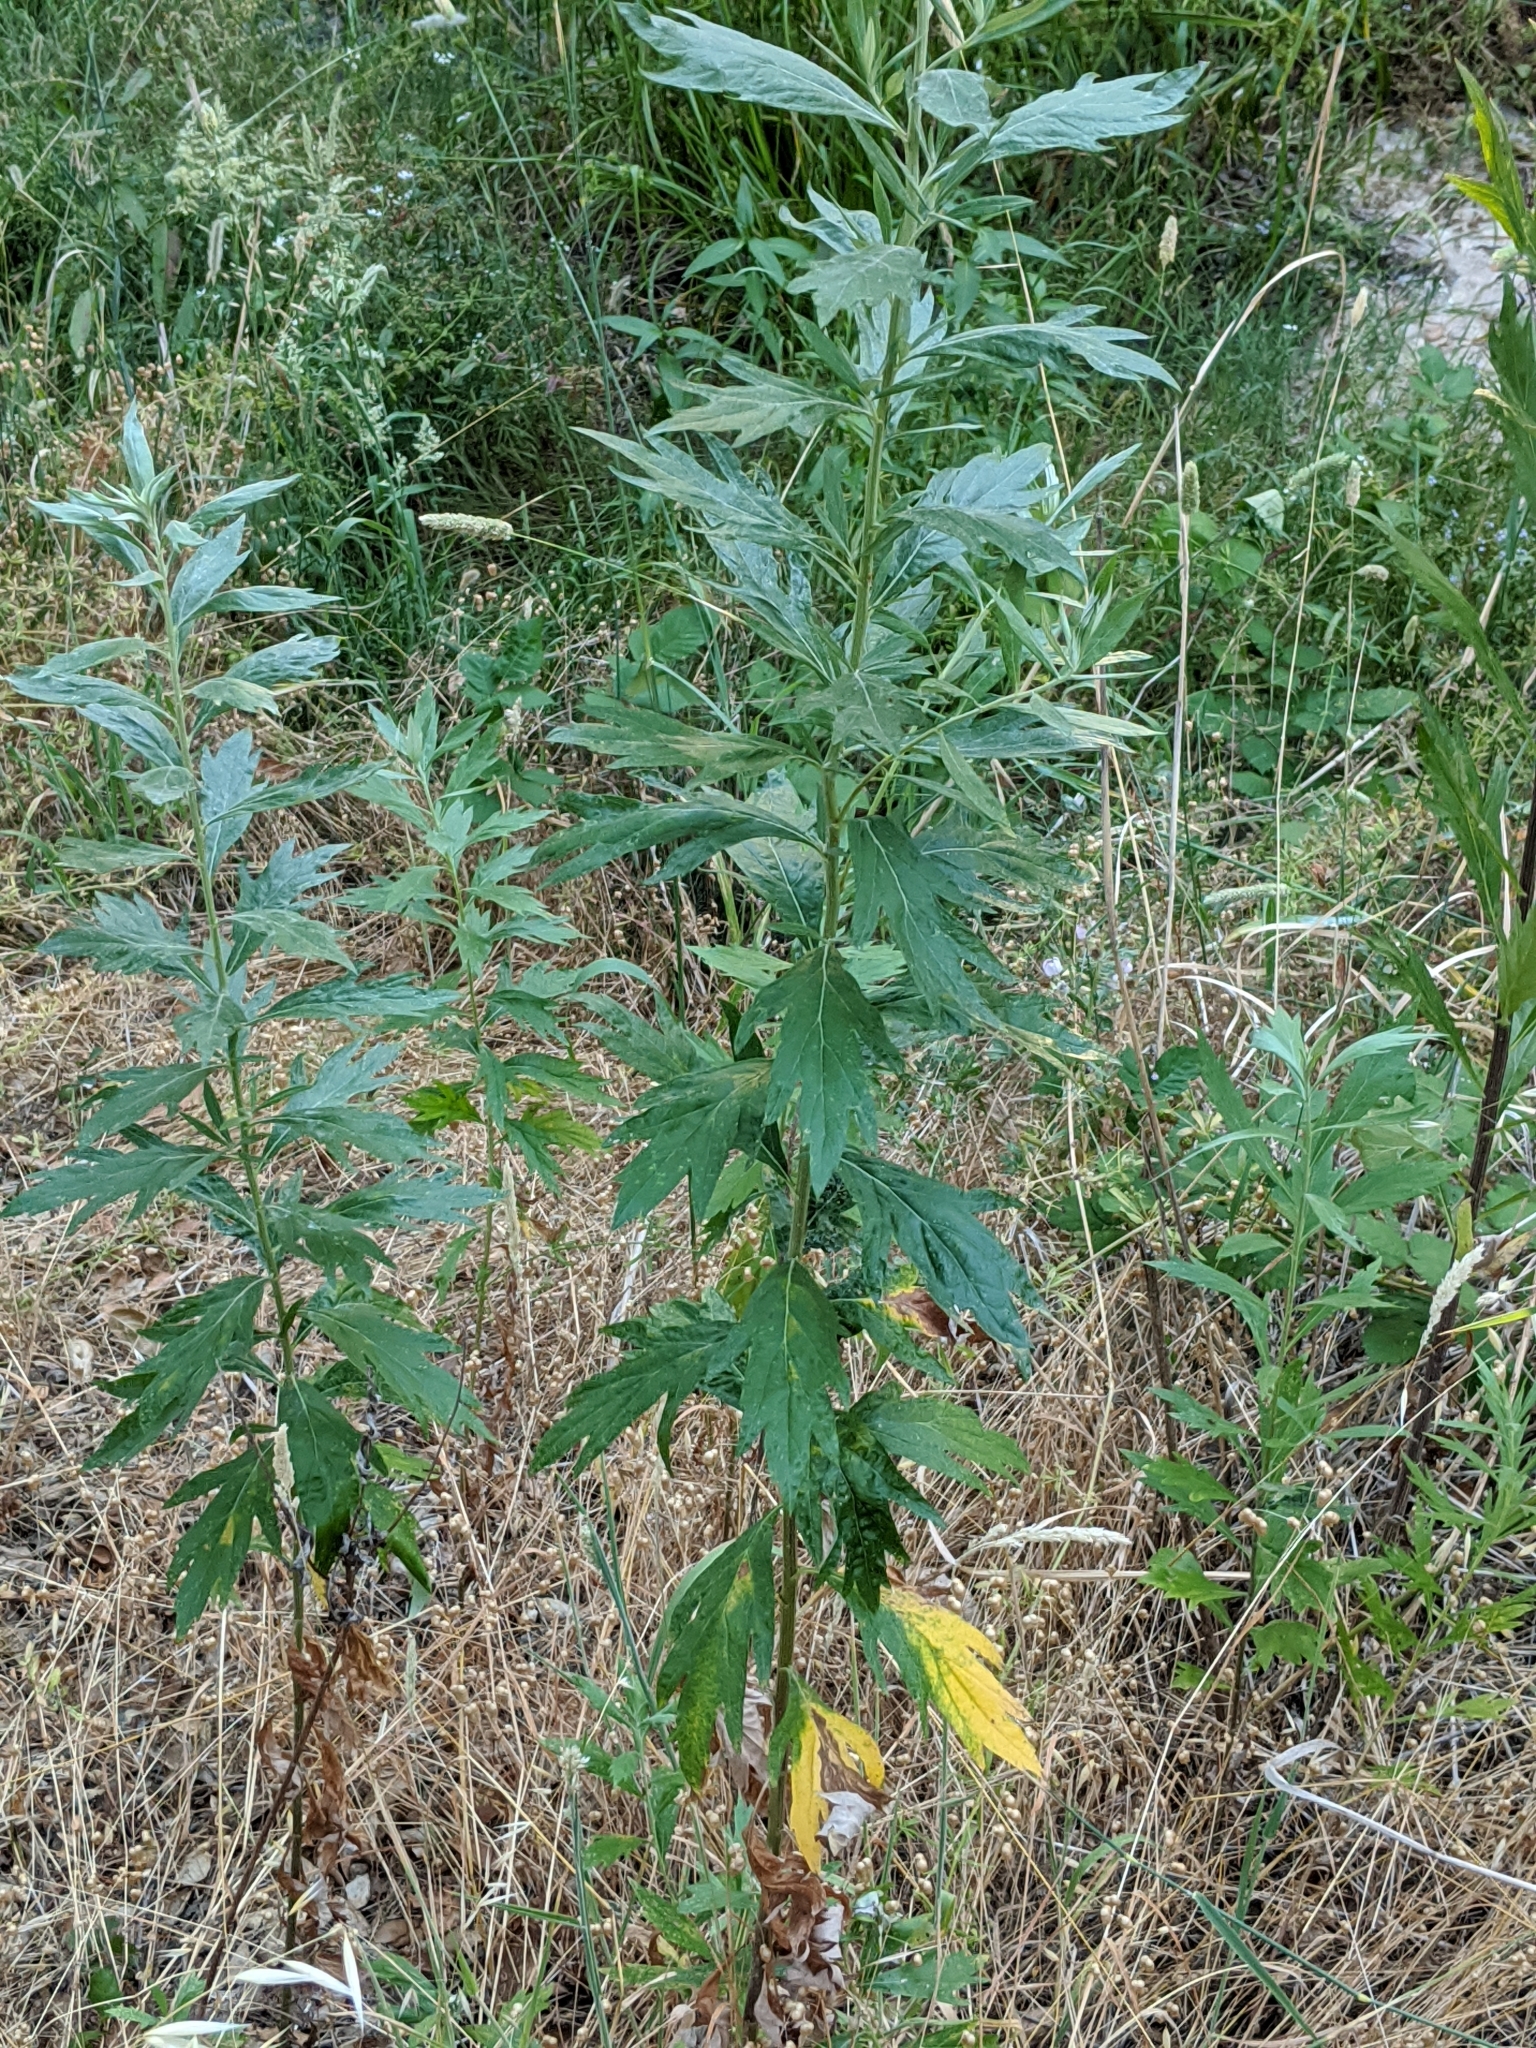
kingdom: Plantae
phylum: Tracheophyta
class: Magnoliopsida
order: Asterales
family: Asteraceae
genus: Artemisia
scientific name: Artemisia douglasiana
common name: Northwest mugwort
